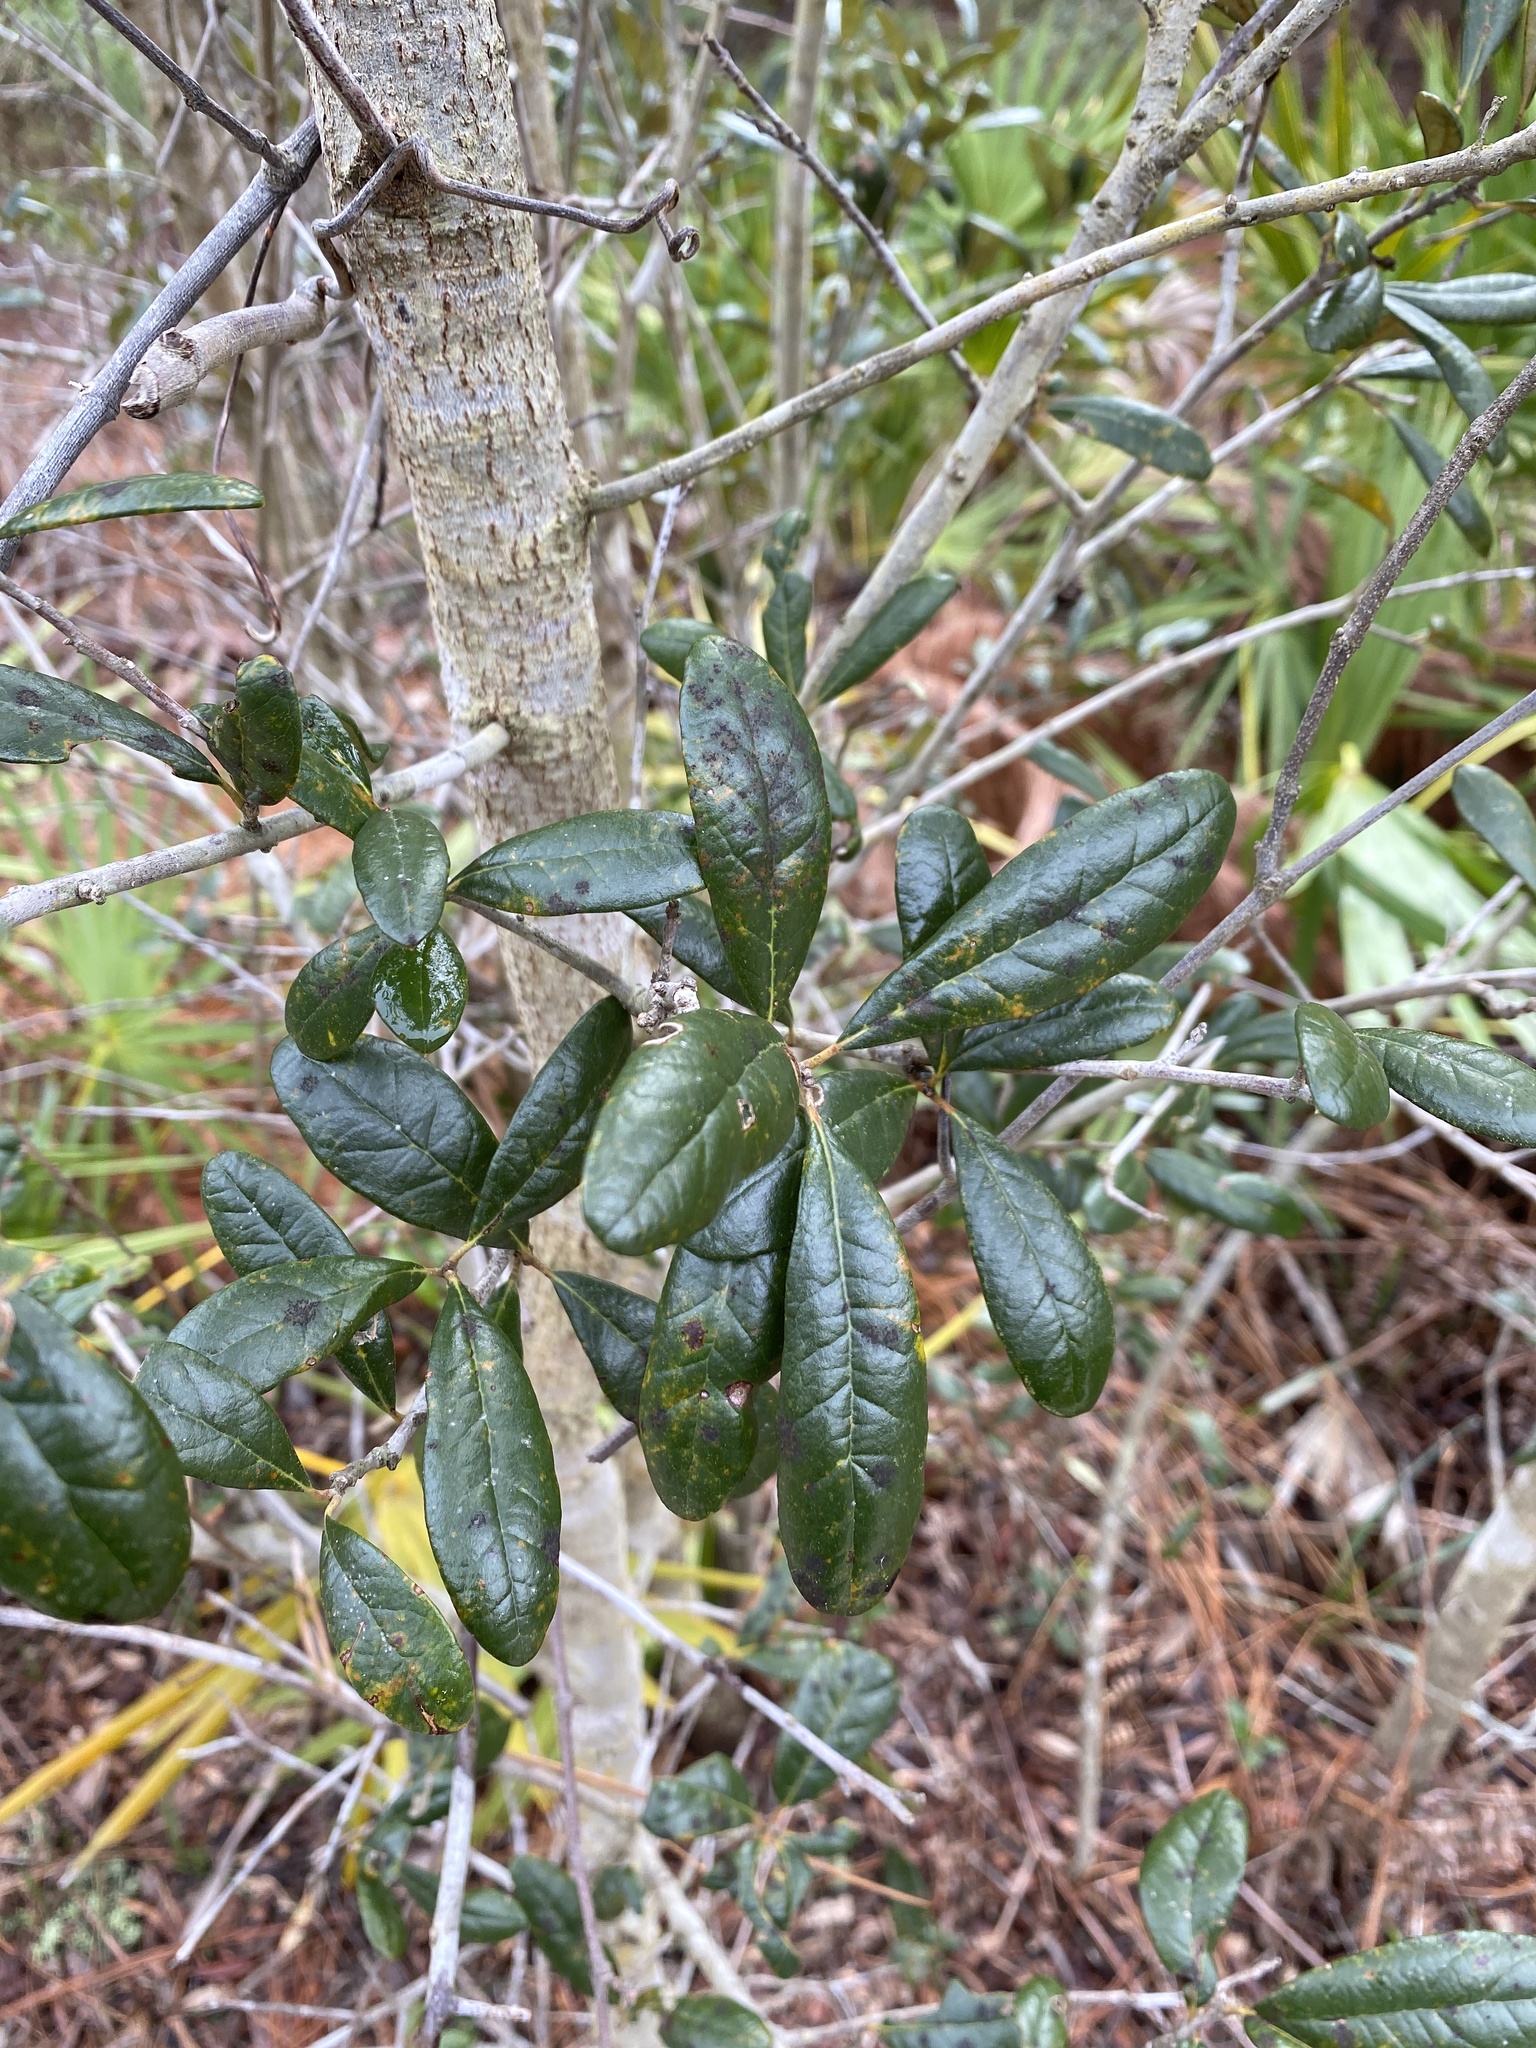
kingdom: Plantae
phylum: Tracheophyta
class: Magnoliopsida
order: Fagales
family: Fagaceae
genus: Quercus
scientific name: Quercus geminata
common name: Sand live oak
